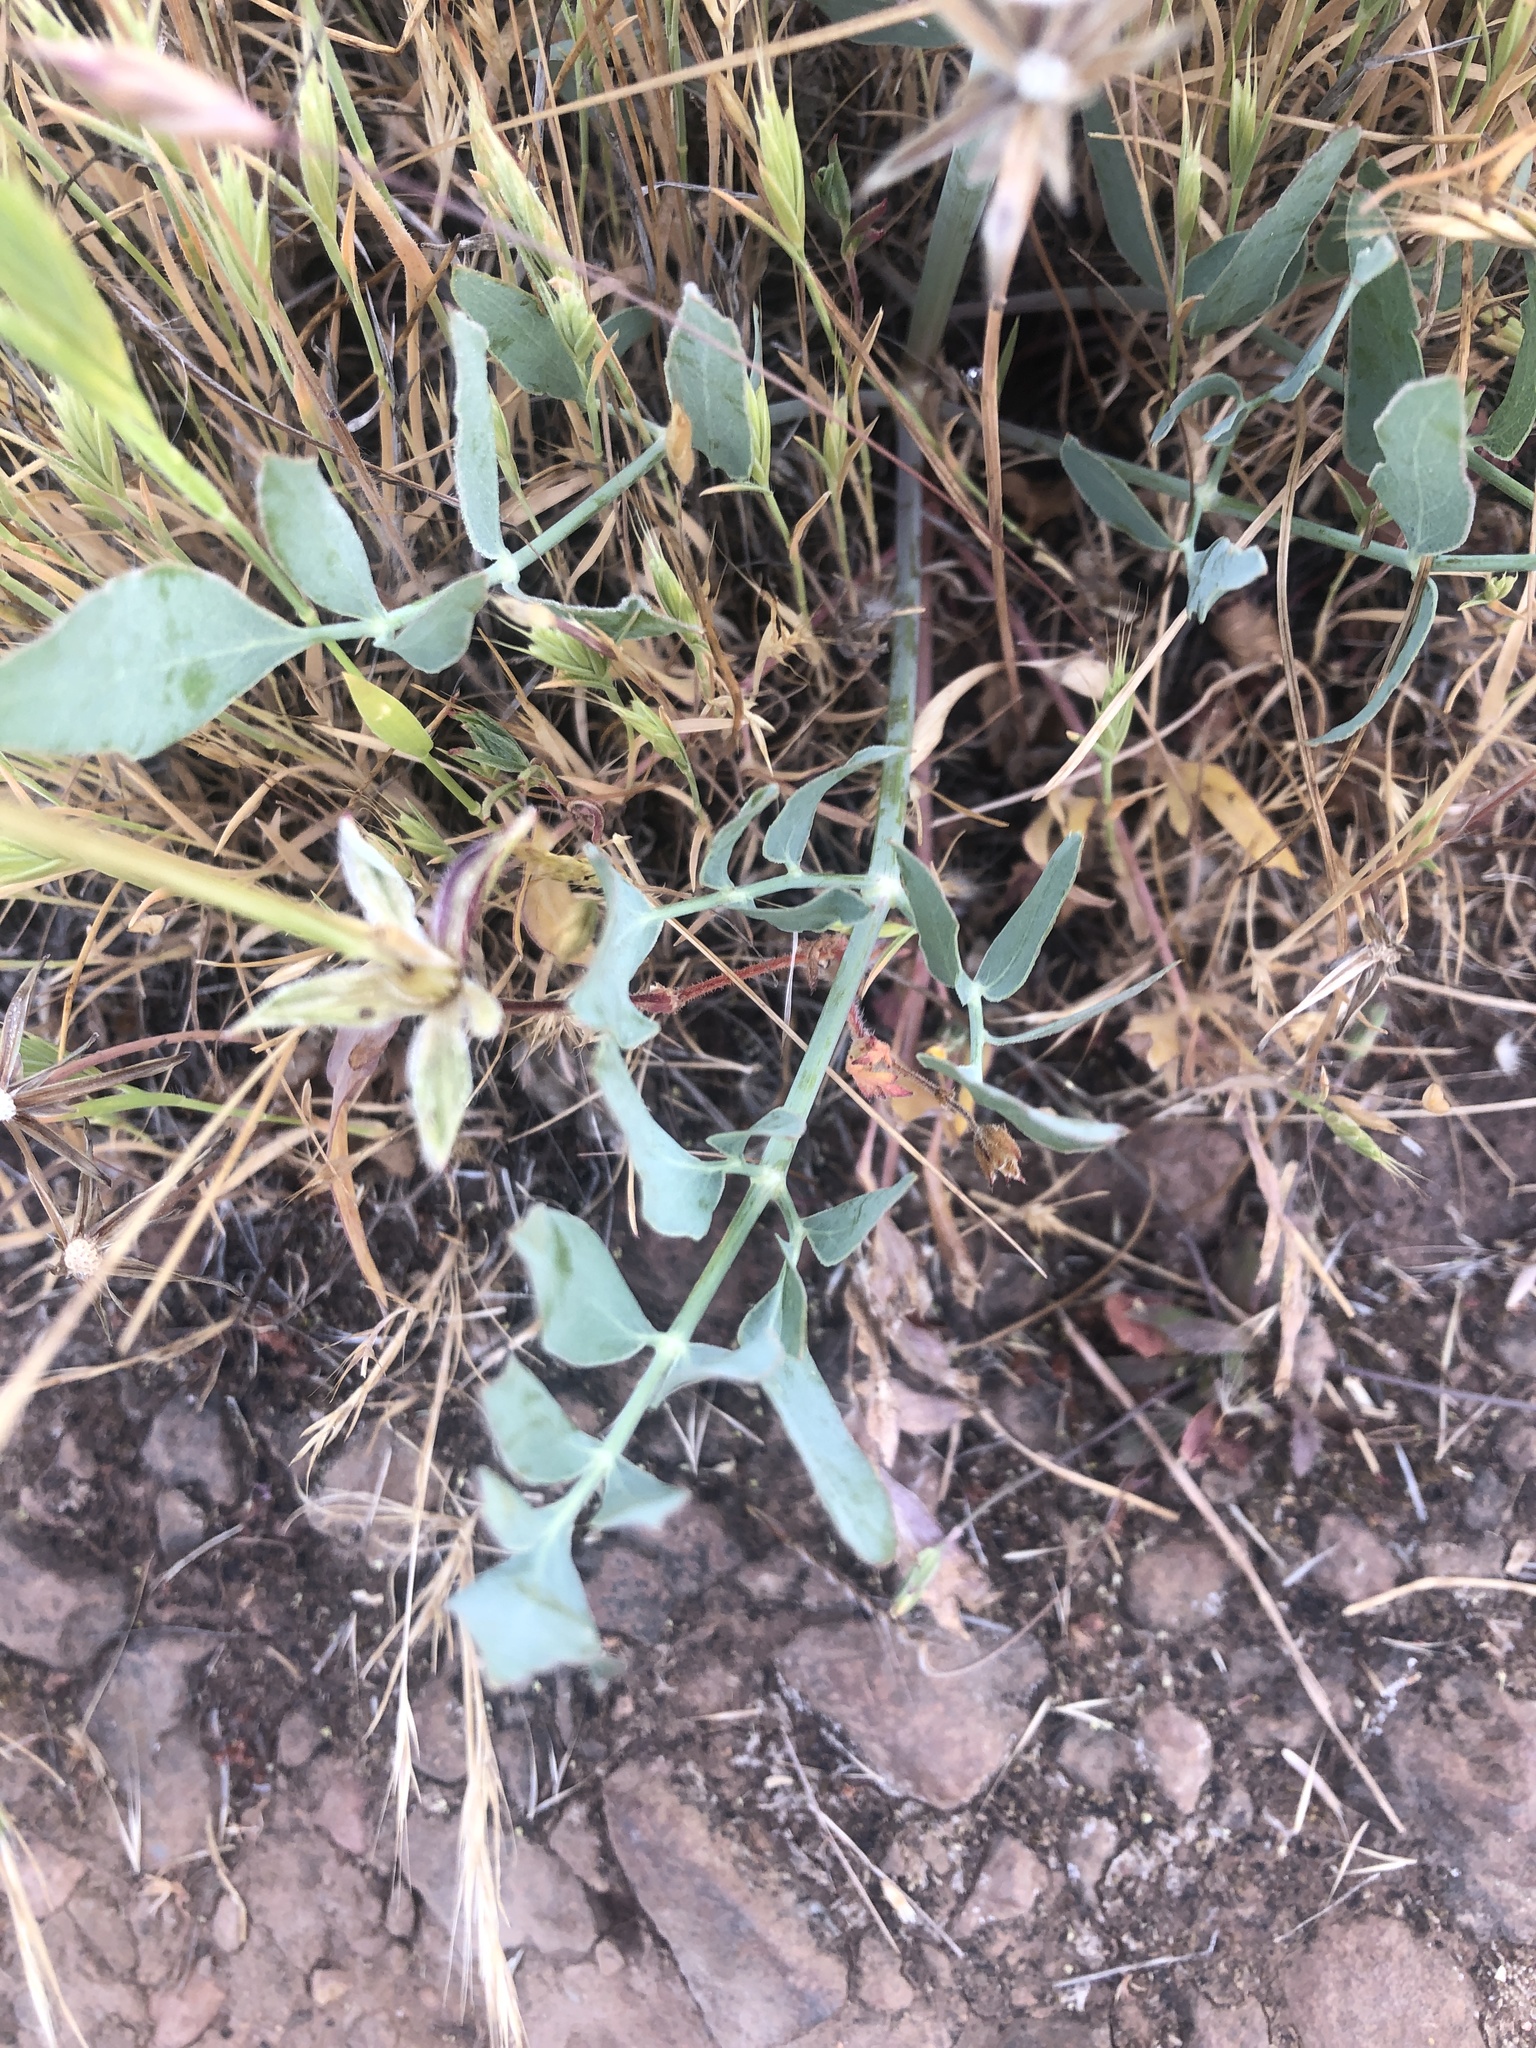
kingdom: Plantae
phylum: Tracheophyta
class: Magnoliopsida
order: Apiales
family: Apiaceae
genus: Lomatium
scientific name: Lomatium nudicaule
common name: Pestle lomatium
